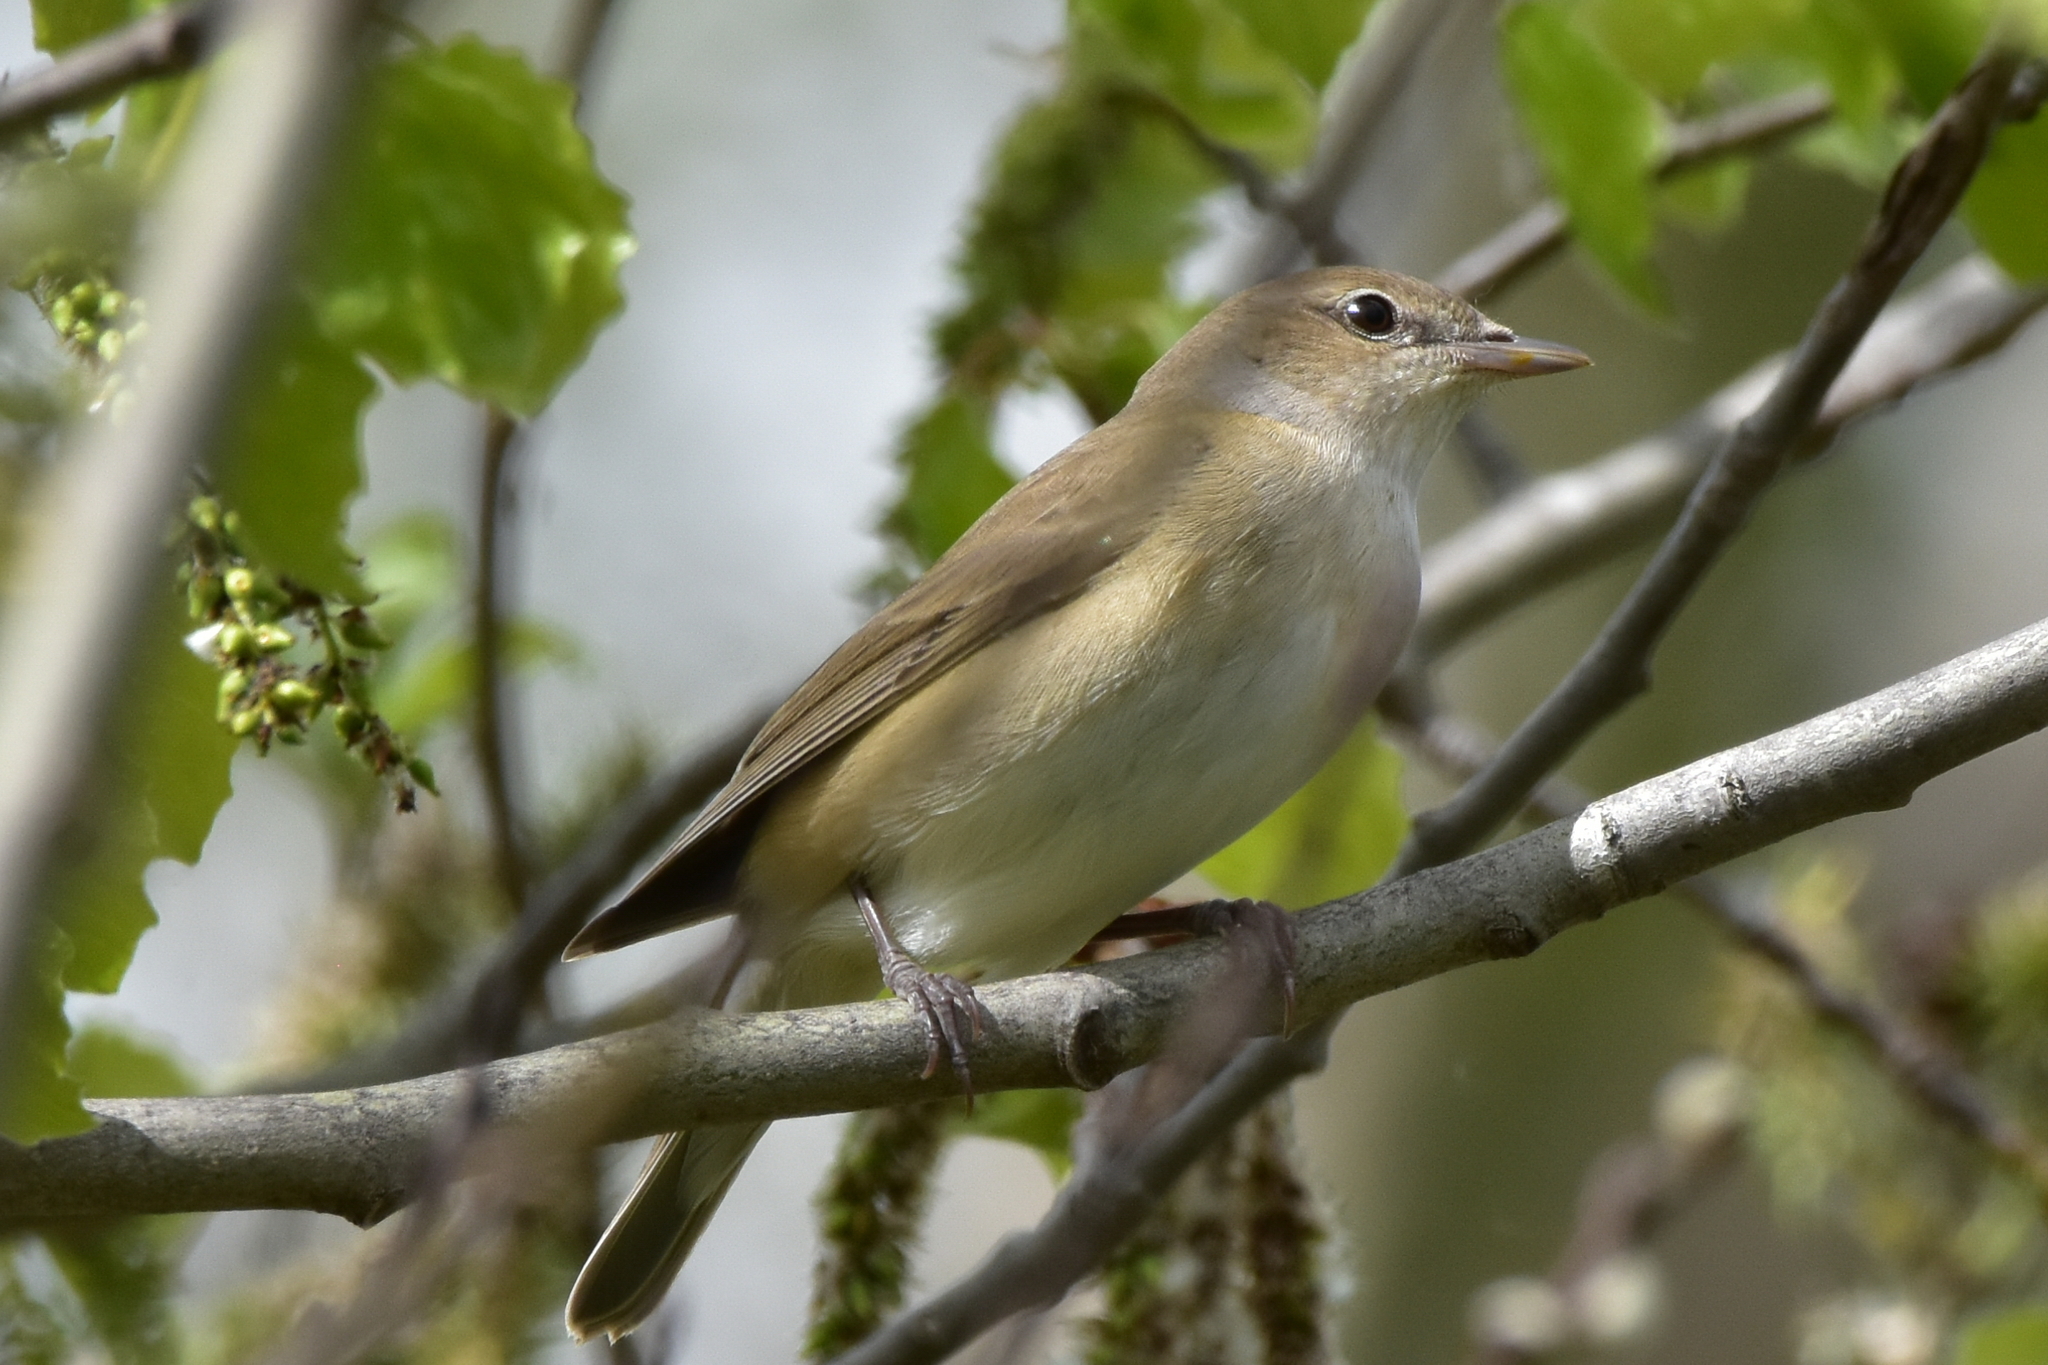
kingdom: Animalia
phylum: Chordata
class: Aves
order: Passeriformes
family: Sylviidae
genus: Sylvia
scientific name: Sylvia borin
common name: Garden warbler
